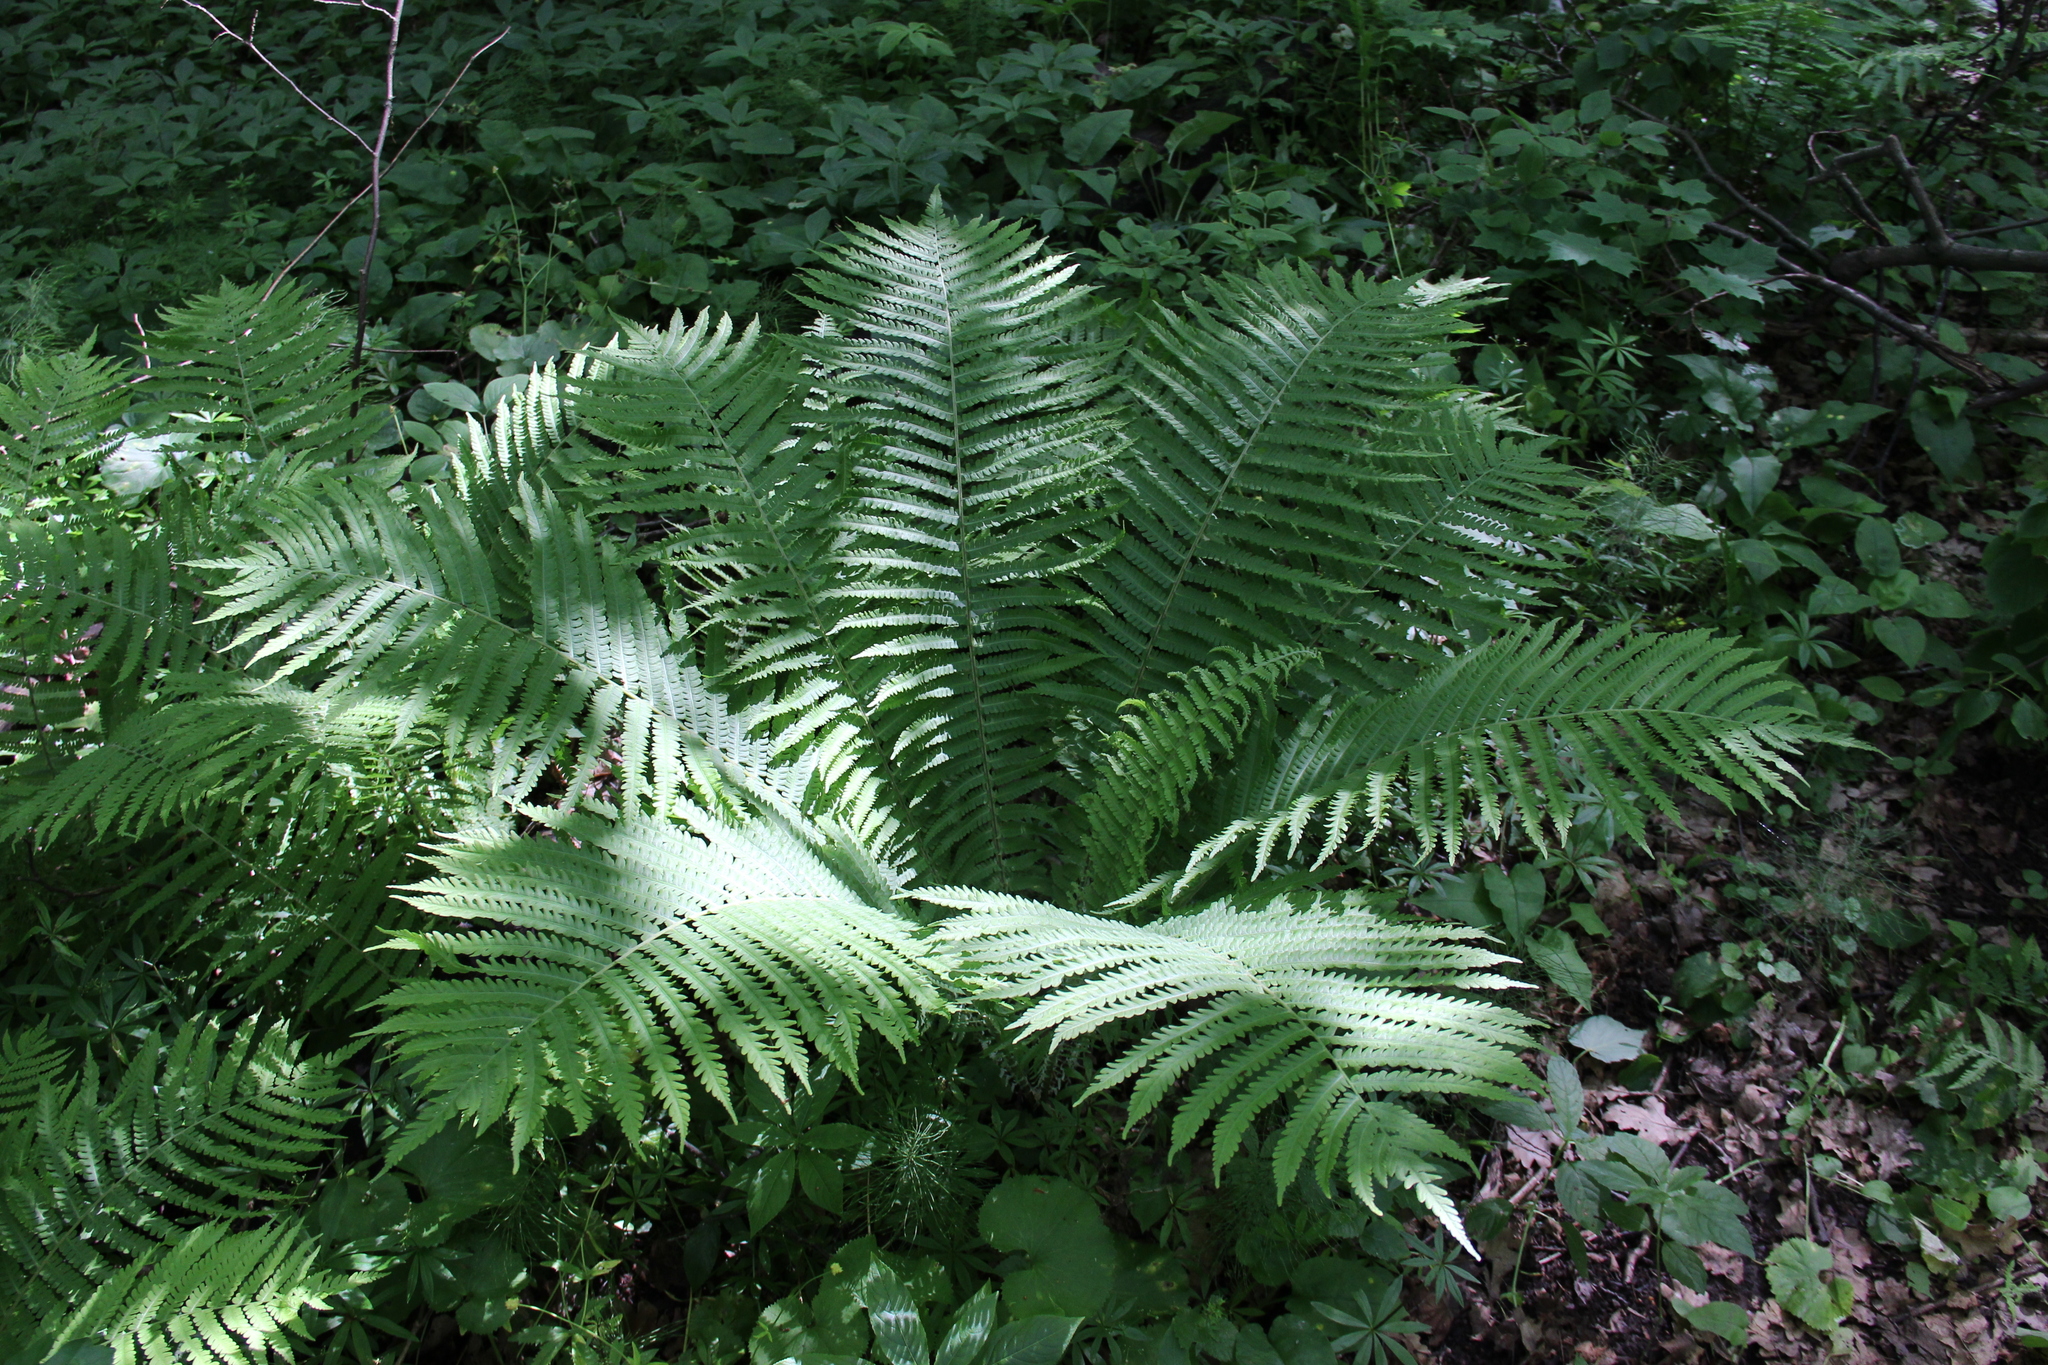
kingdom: Plantae
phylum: Tracheophyta
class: Polypodiopsida
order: Polypodiales
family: Onocleaceae
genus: Matteuccia
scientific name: Matteuccia struthiopteris
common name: Ostrich fern
